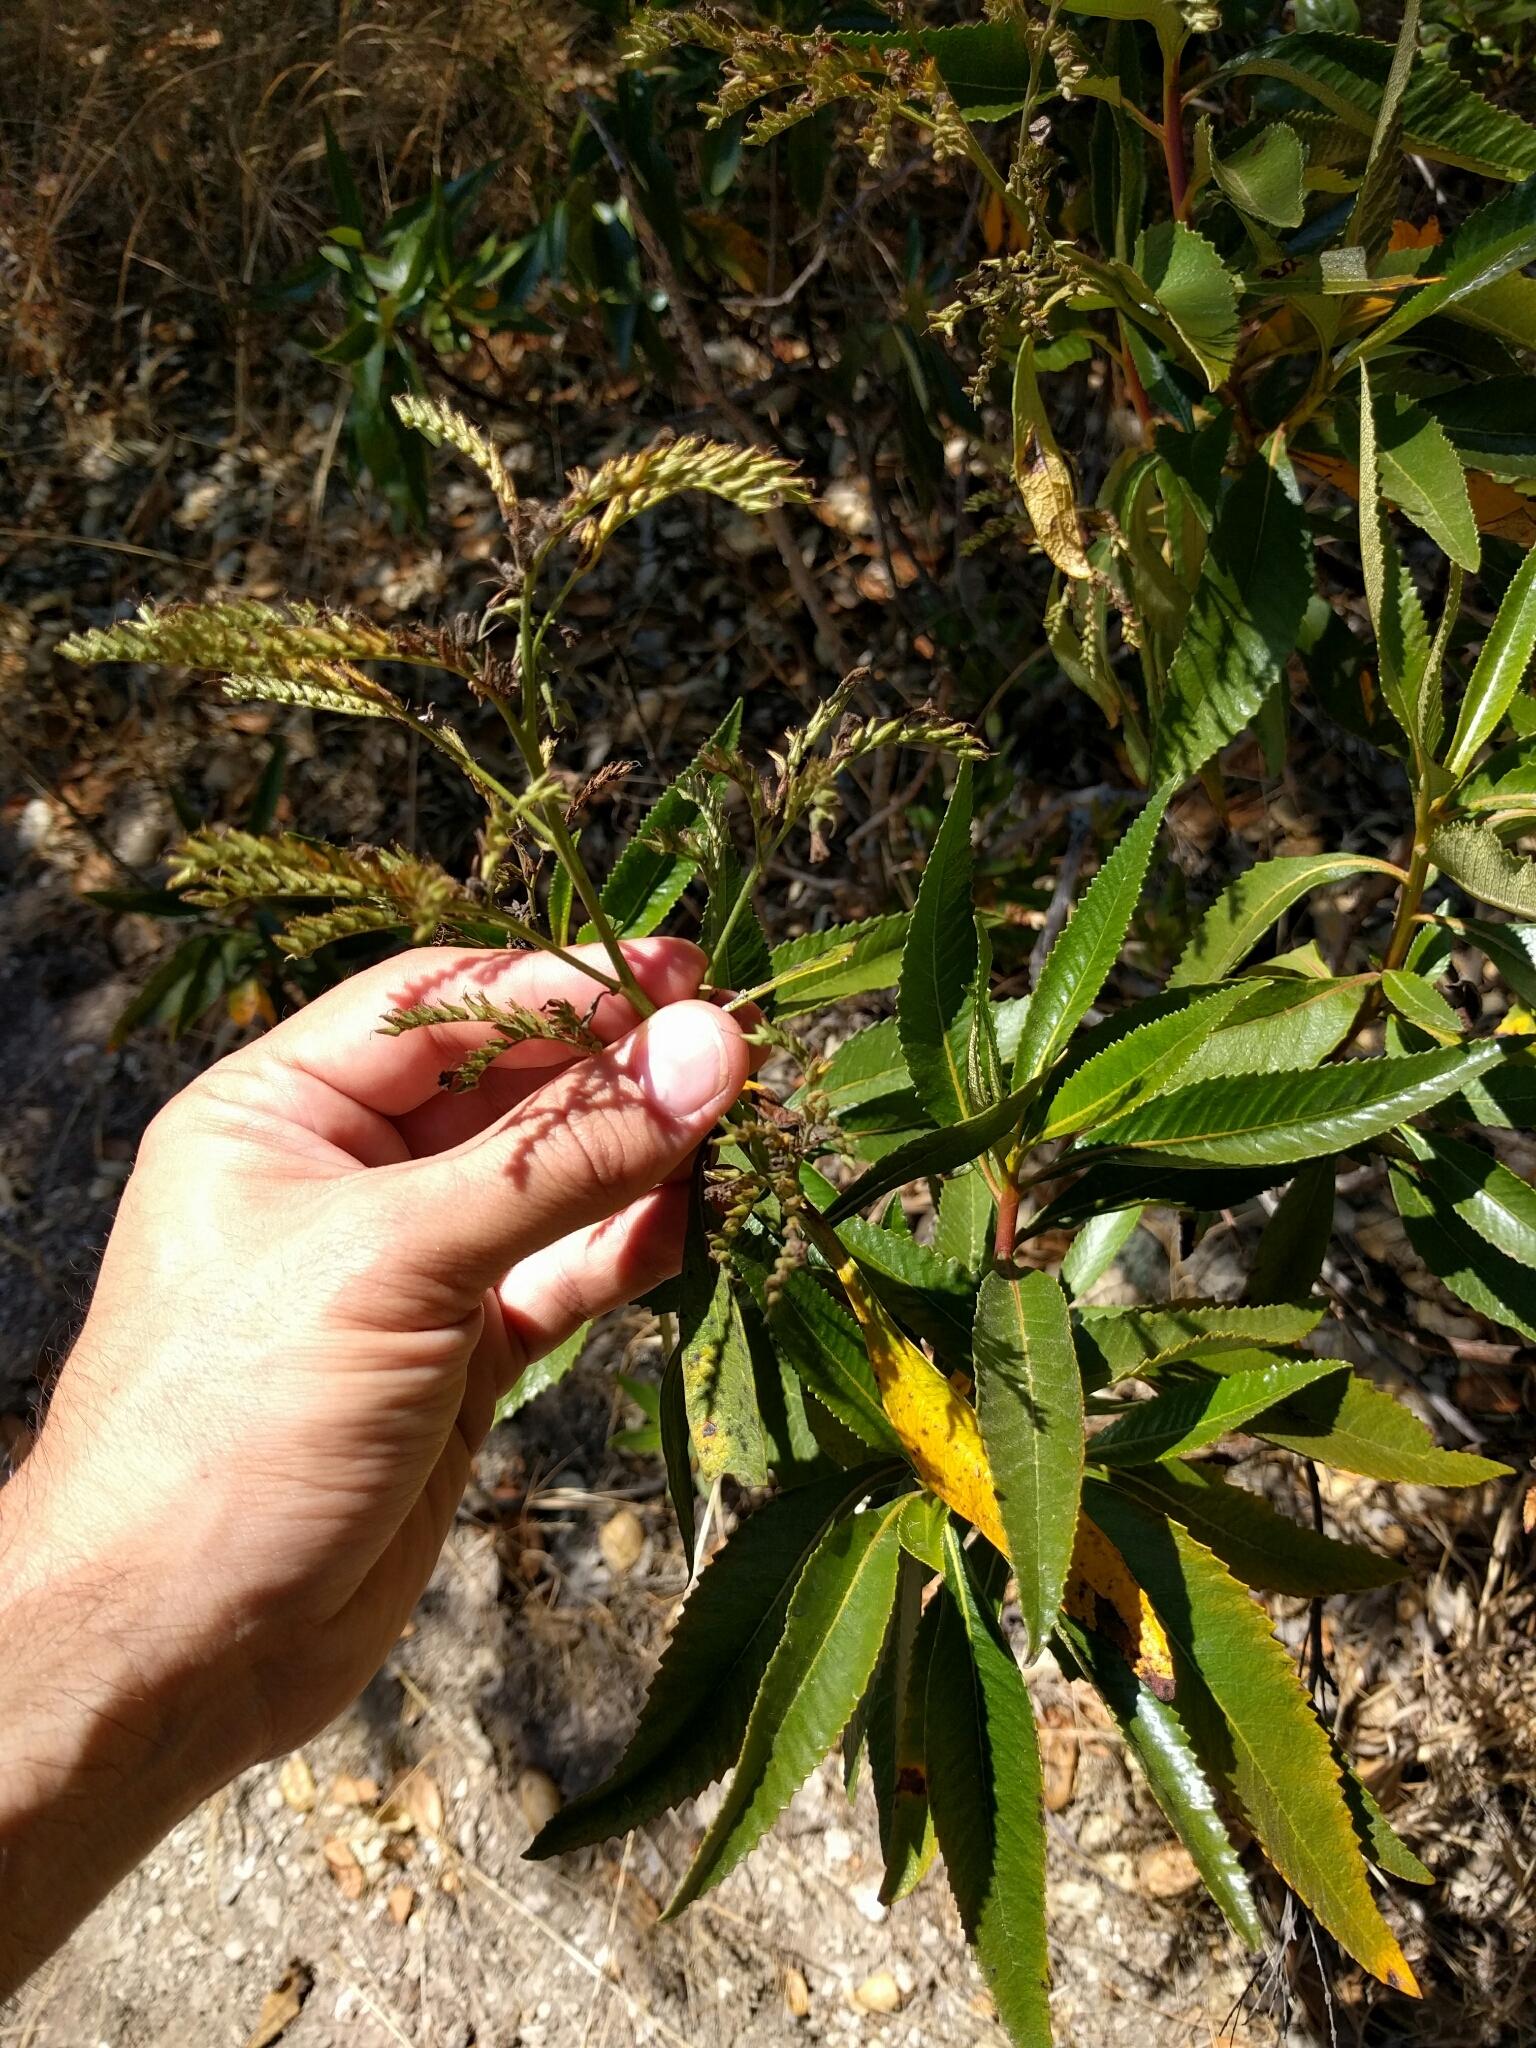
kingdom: Plantae
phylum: Tracheophyta
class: Magnoliopsida
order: Boraginales
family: Namaceae
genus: Eriodictyon
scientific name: Eriodictyon californicum
